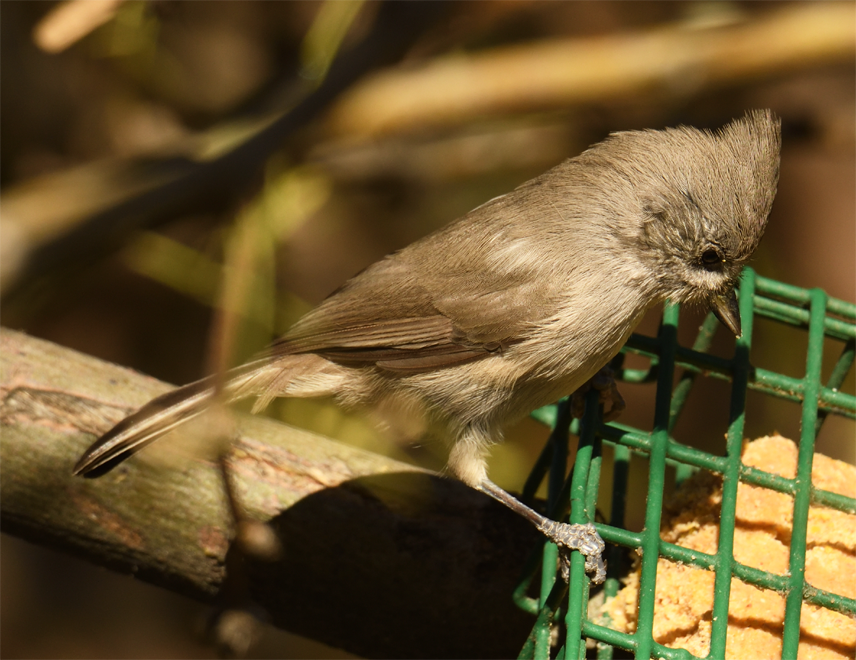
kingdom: Animalia
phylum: Chordata
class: Aves
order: Passeriformes
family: Paridae
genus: Baeolophus
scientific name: Baeolophus inornatus
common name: Oak titmouse
